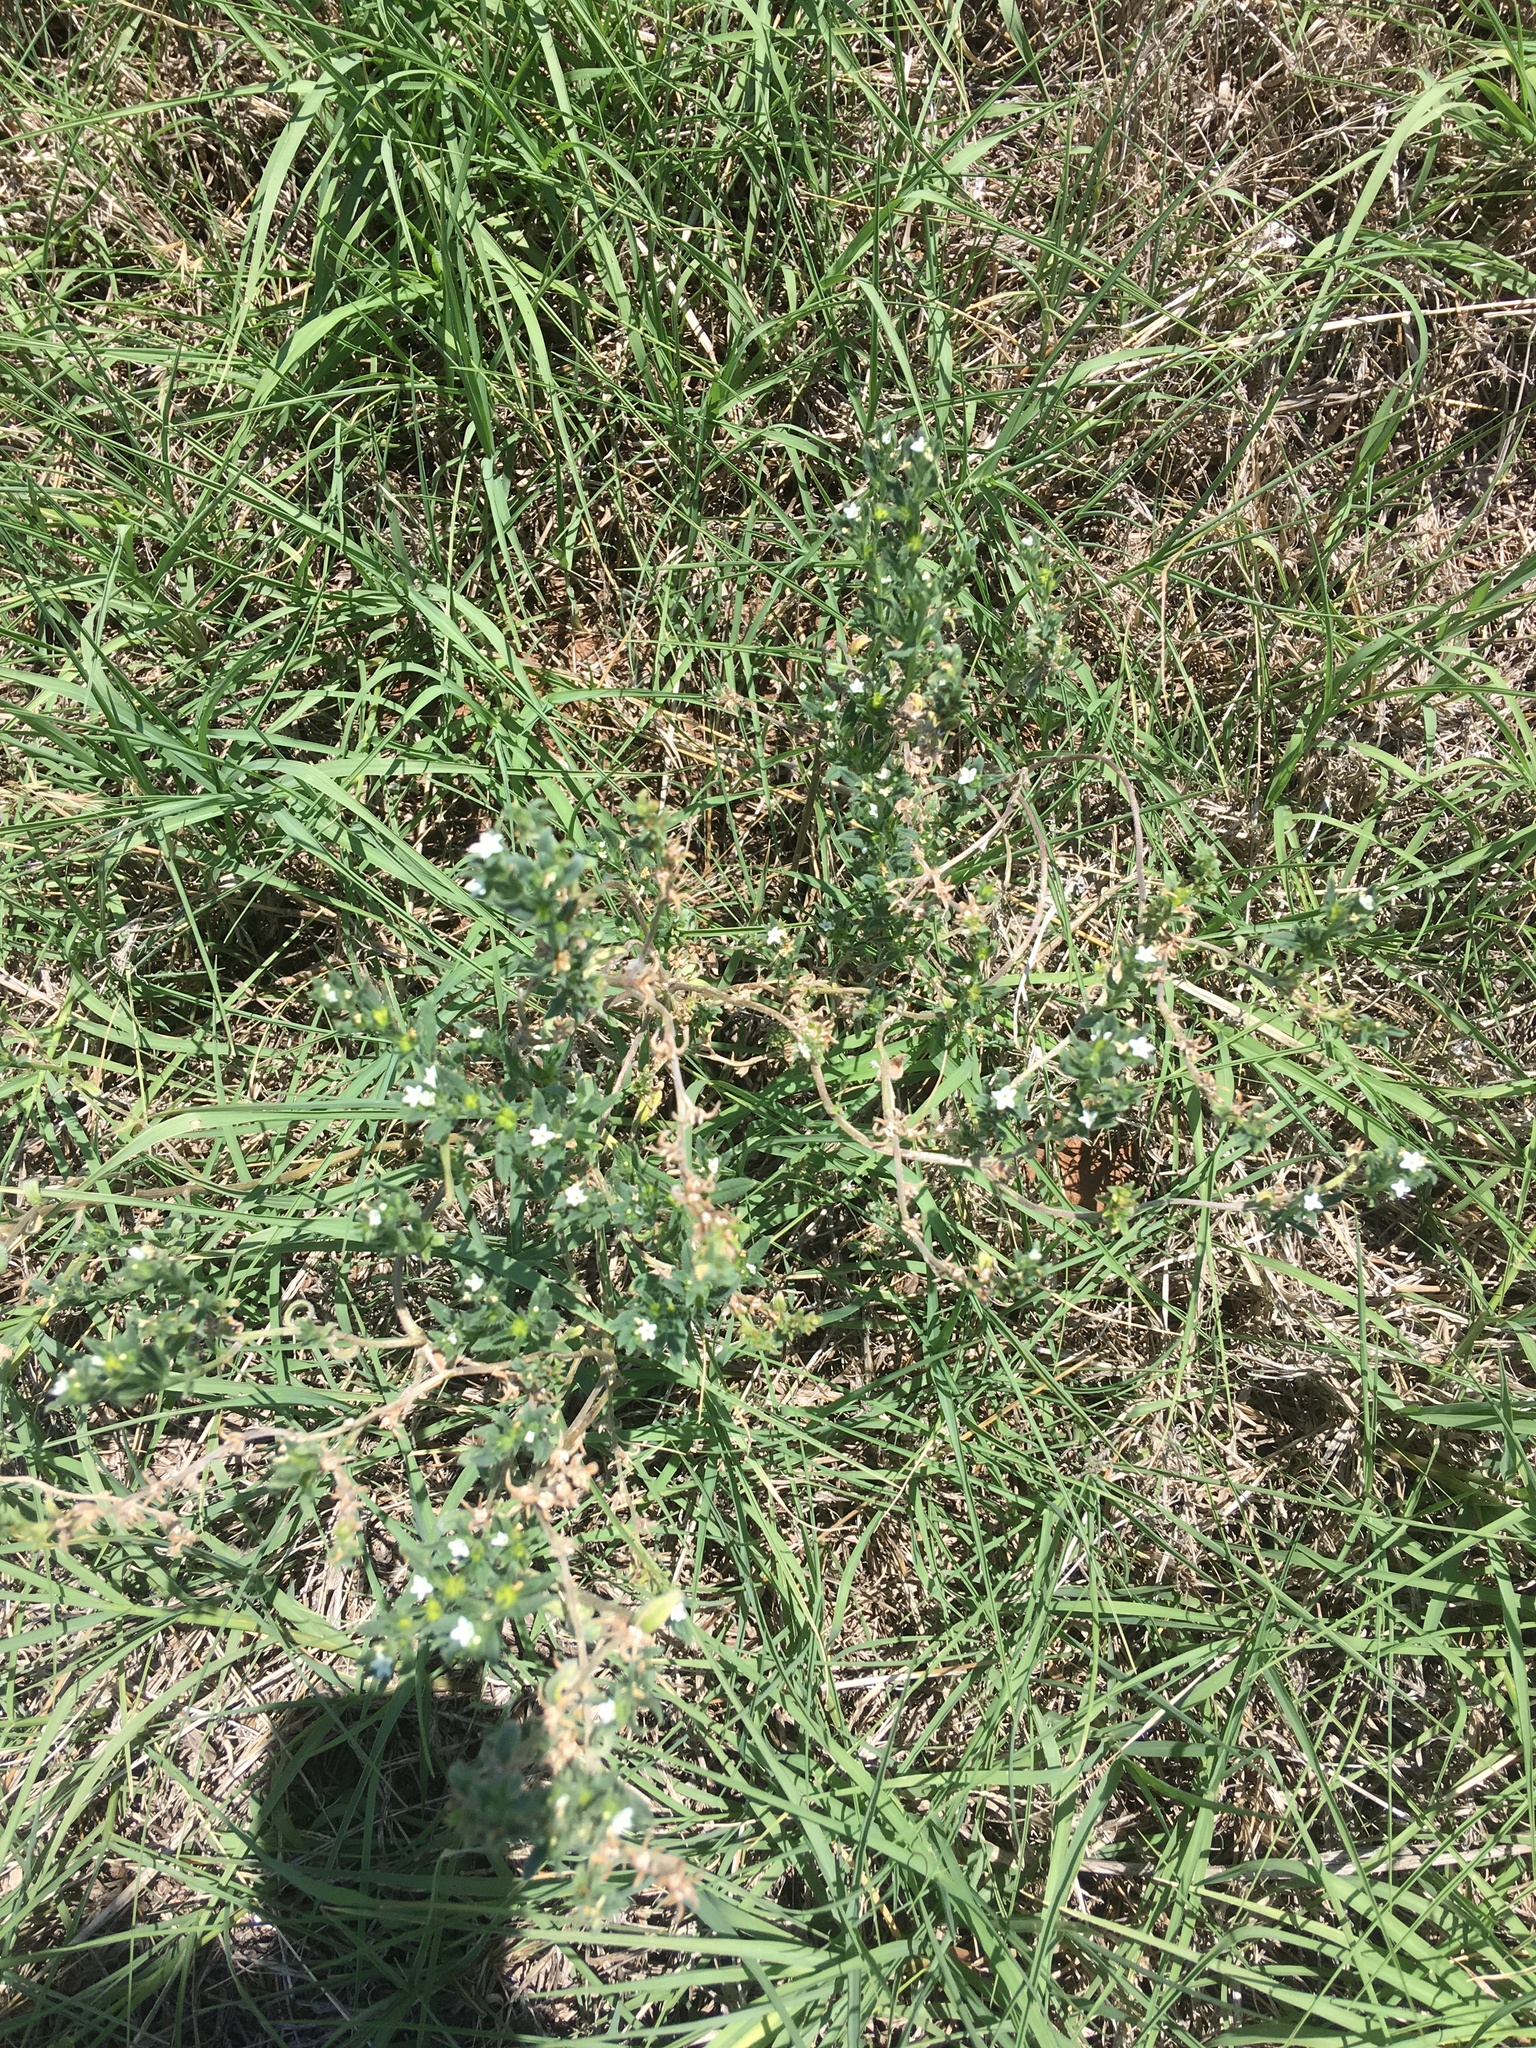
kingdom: Plantae
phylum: Tracheophyta
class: Magnoliopsida
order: Boraginales
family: Boraginaceae
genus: Buglossoides
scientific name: Buglossoides arvensis
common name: Corn gromwell
